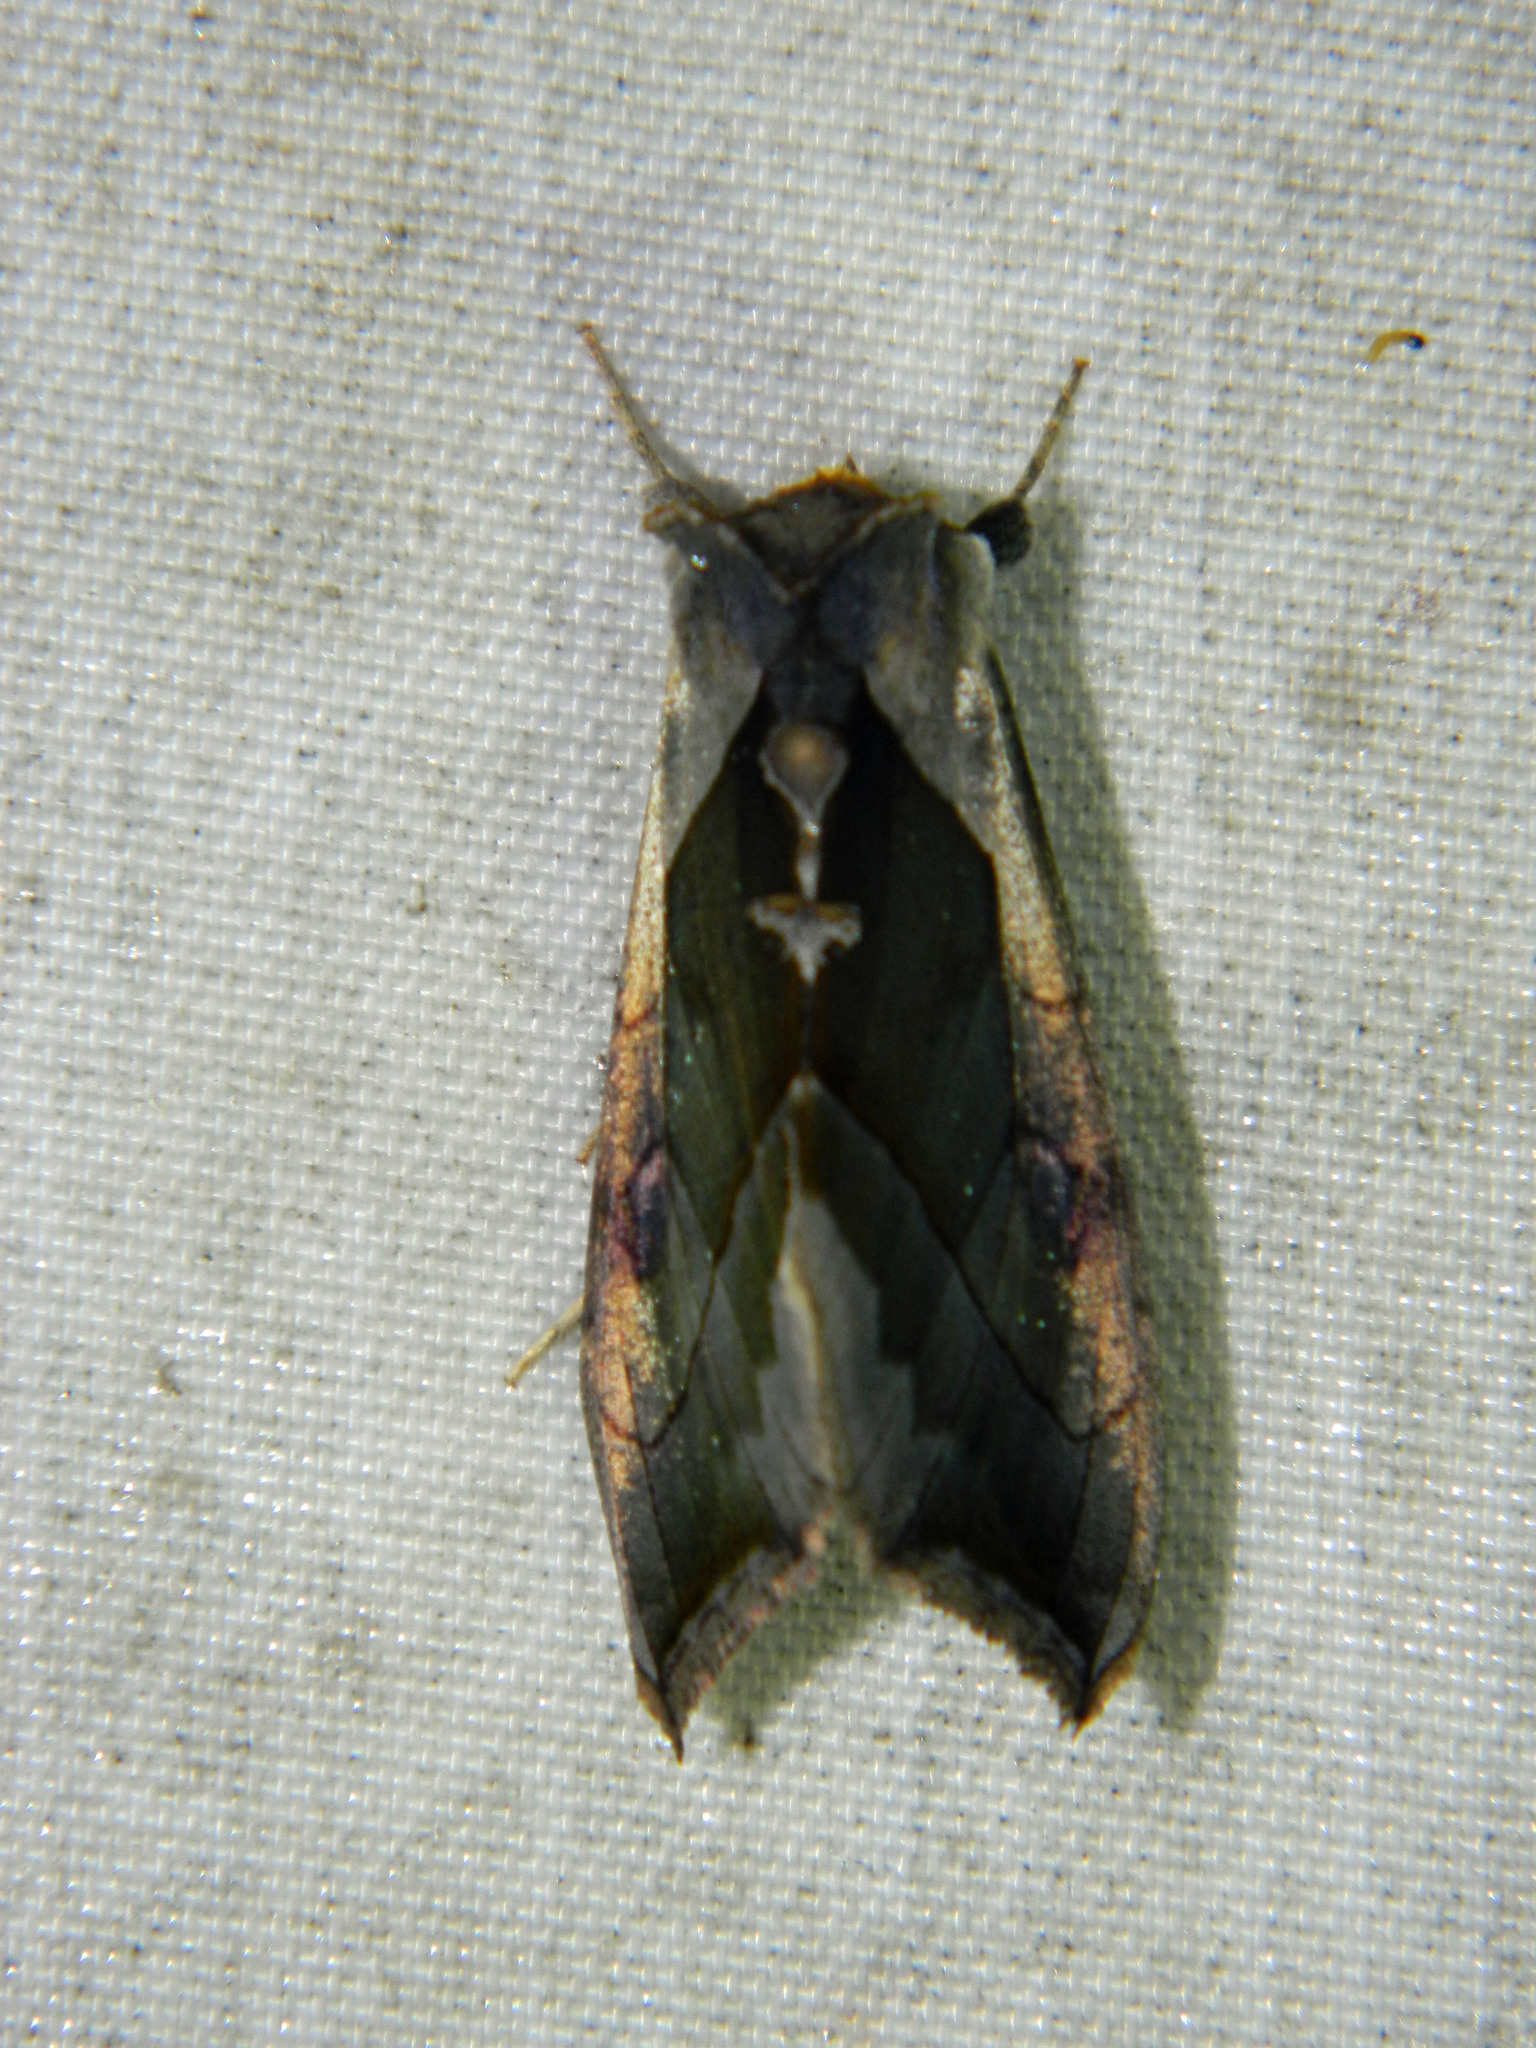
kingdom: Animalia
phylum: Arthropoda
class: Insecta
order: Lepidoptera
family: Noctuidae
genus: Diachrysia
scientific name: Diachrysia balluca
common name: Green-patched looper moth
